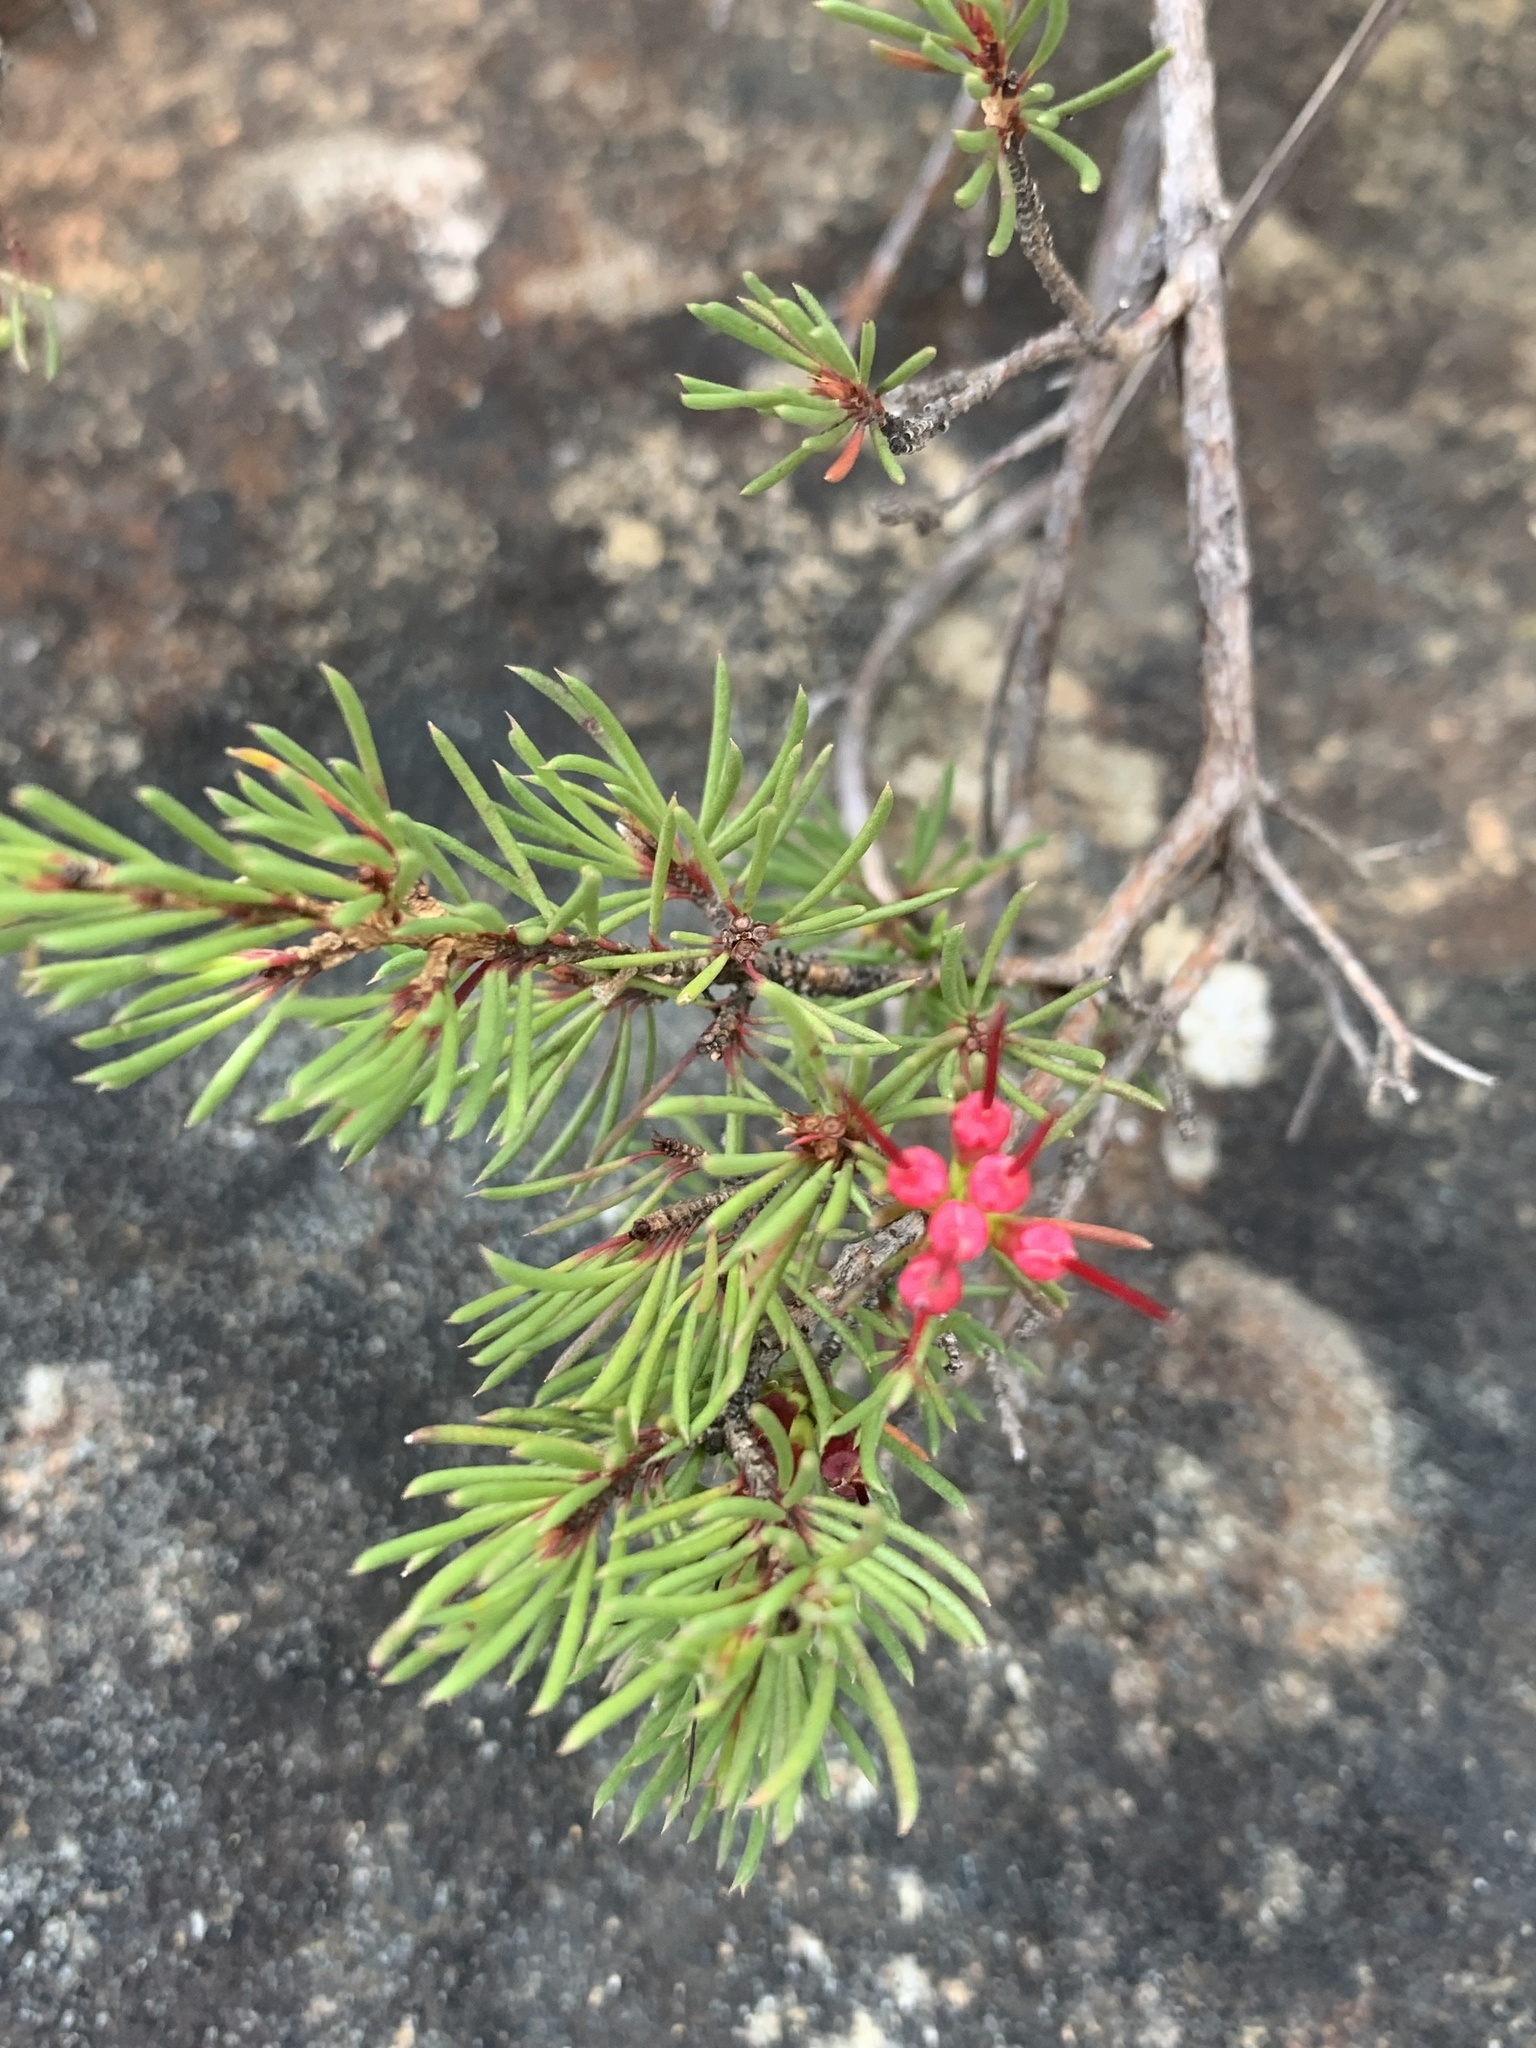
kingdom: Plantae
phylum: Tracheophyta
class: Magnoliopsida
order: Myrtales
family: Myrtaceae
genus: Darwinia
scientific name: Darwinia fascicularis
